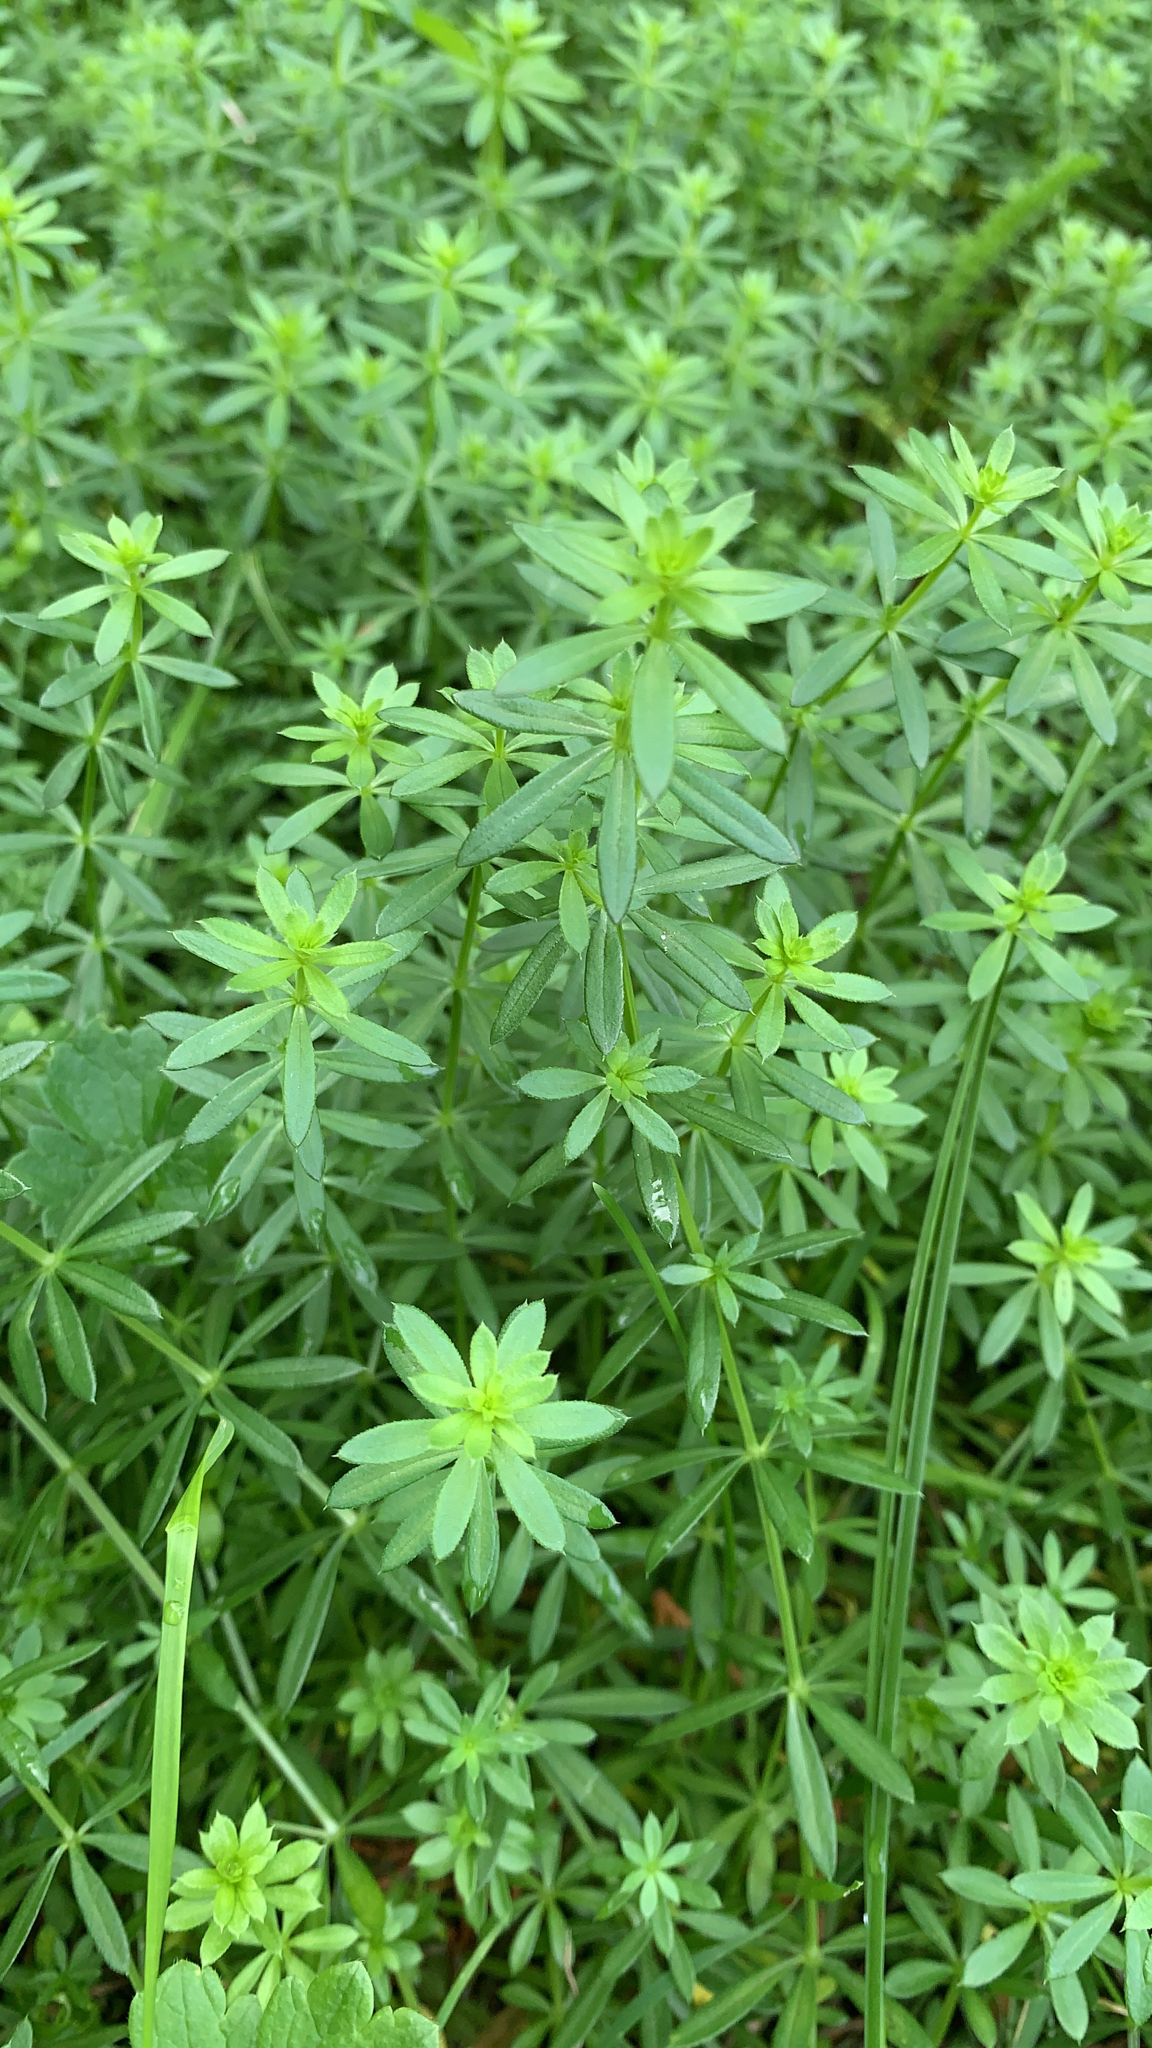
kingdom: Plantae
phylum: Tracheophyta
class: Magnoliopsida
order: Gentianales
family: Rubiaceae
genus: Galium
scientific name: Galium mollugo
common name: Hedge bedstraw
